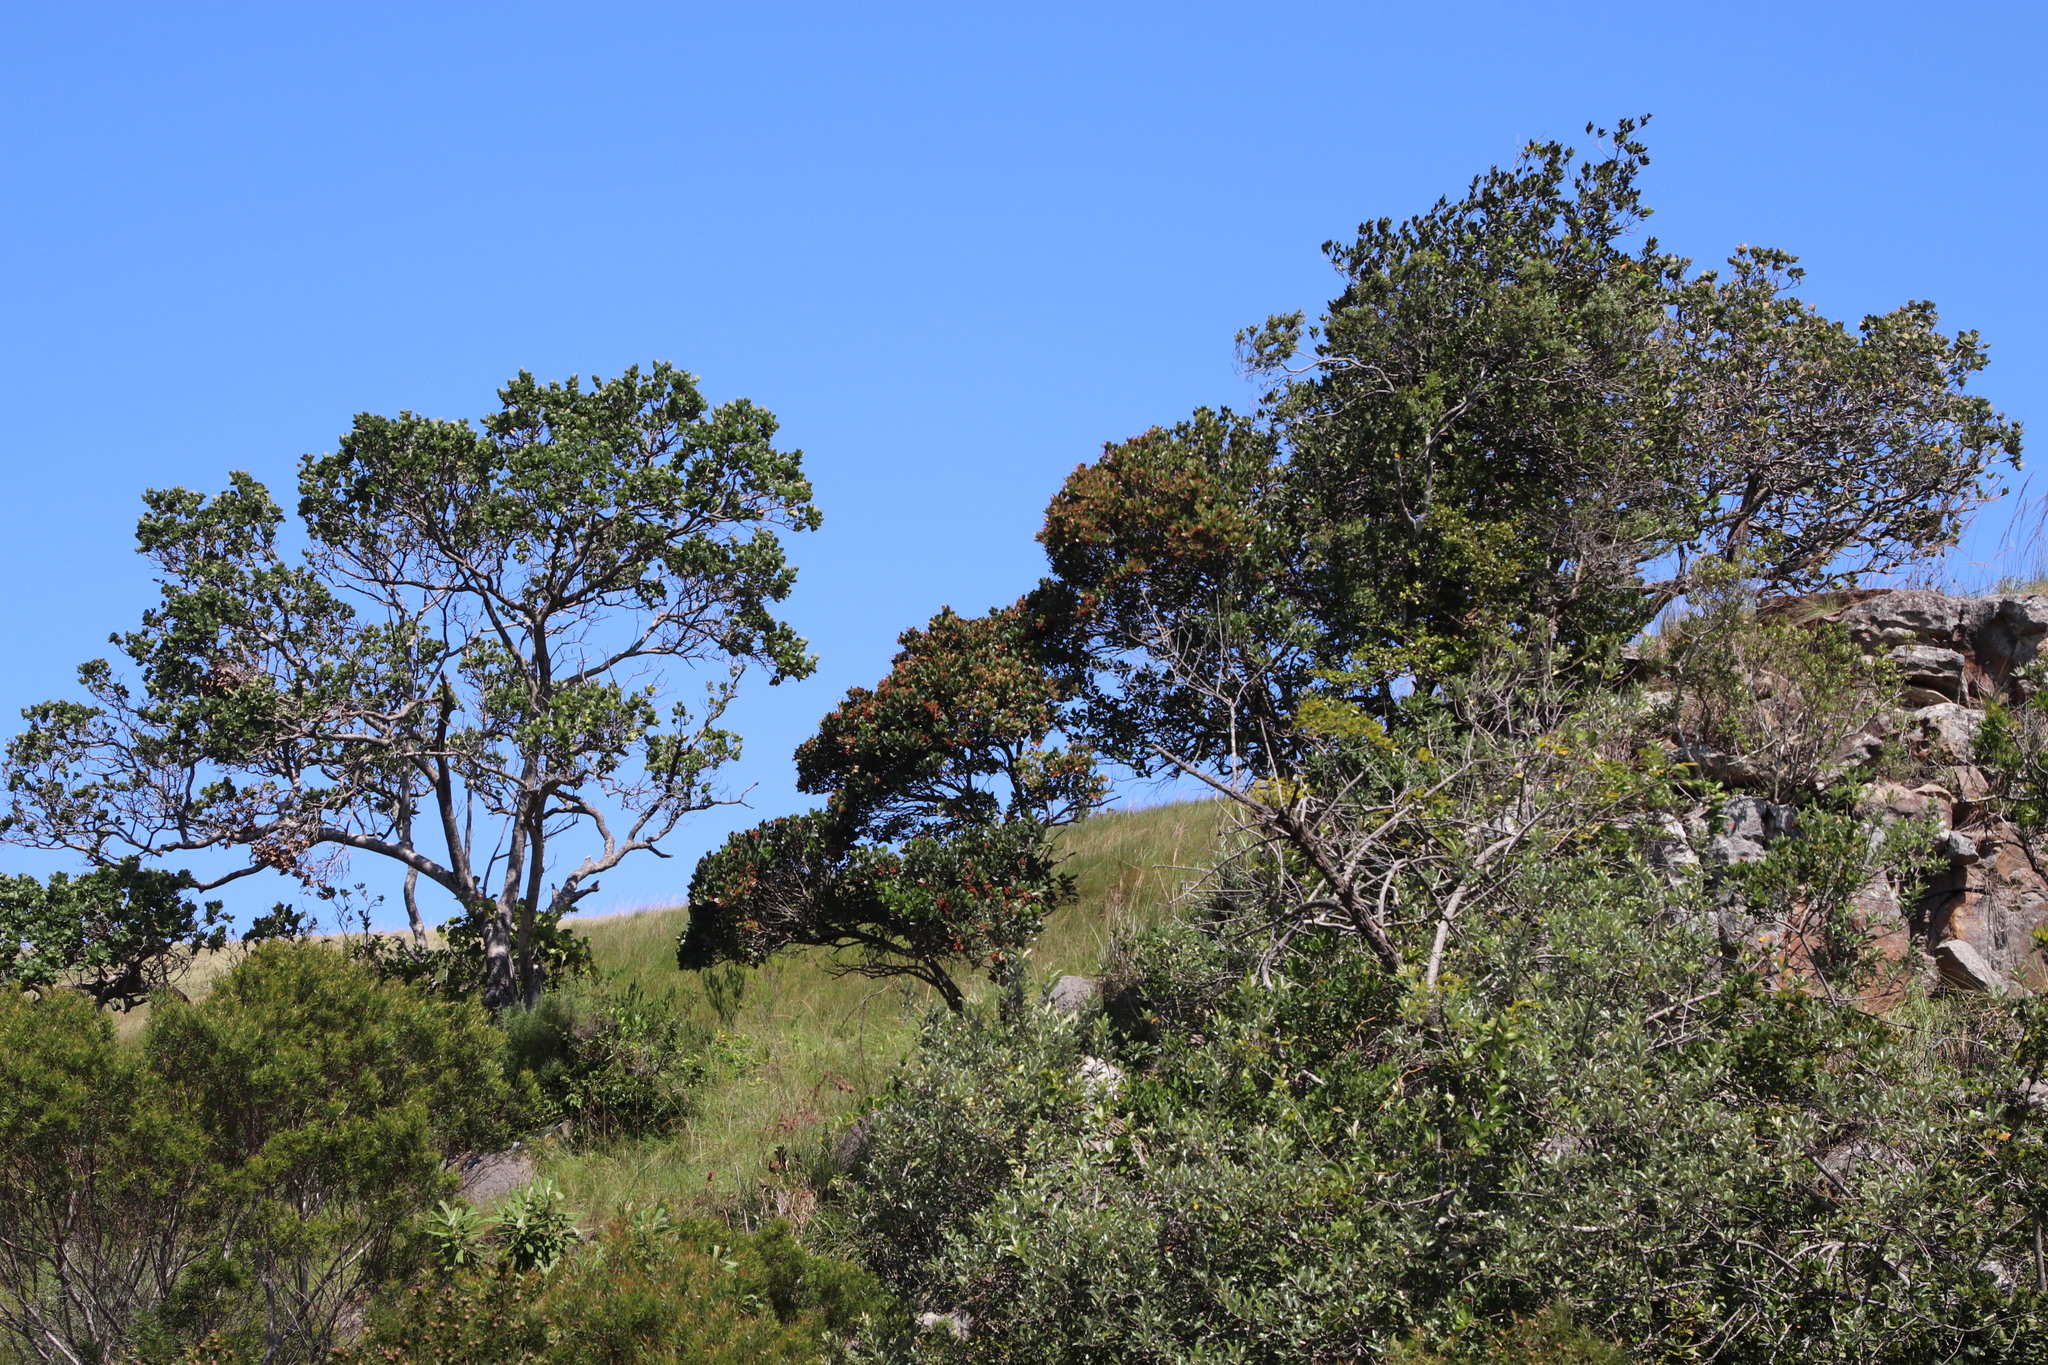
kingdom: Plantae
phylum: Tracheophyta
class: Magnoliopsida
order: Metteniusales
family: Metteniusaceae
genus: Apodytes
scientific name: Apodytes dimidiata
